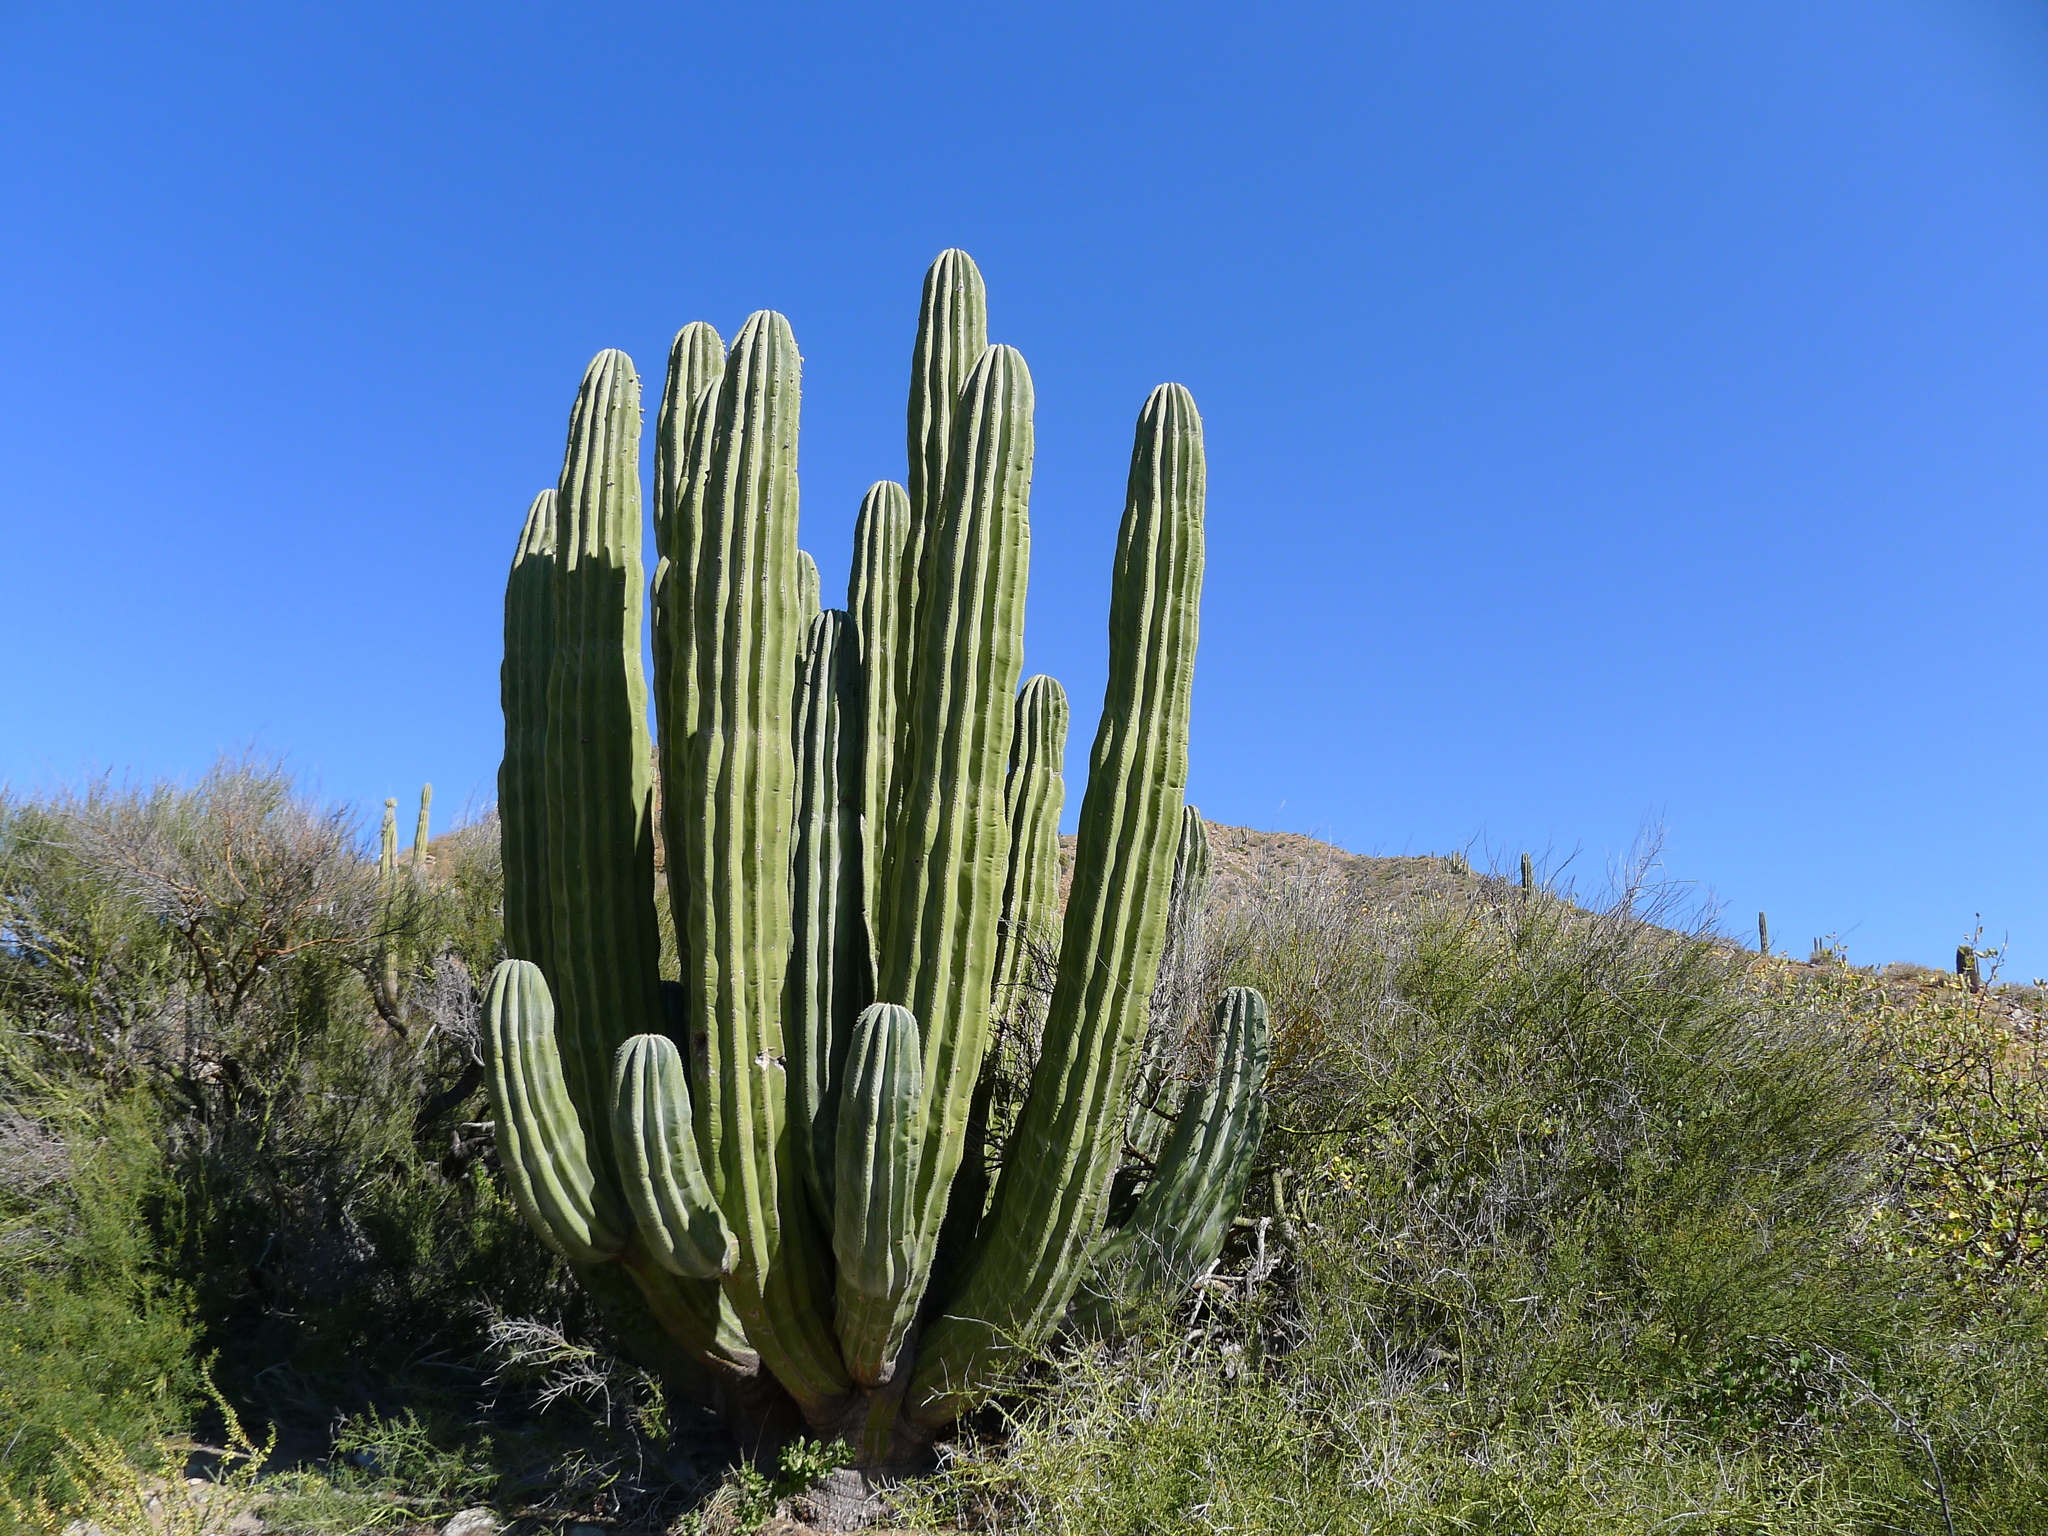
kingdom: Plantae
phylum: Tracheophyta
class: Magnoliopsida
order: Caryophyllales
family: Cactaceae
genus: Pachycereus
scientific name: Pachycereus pringlei
